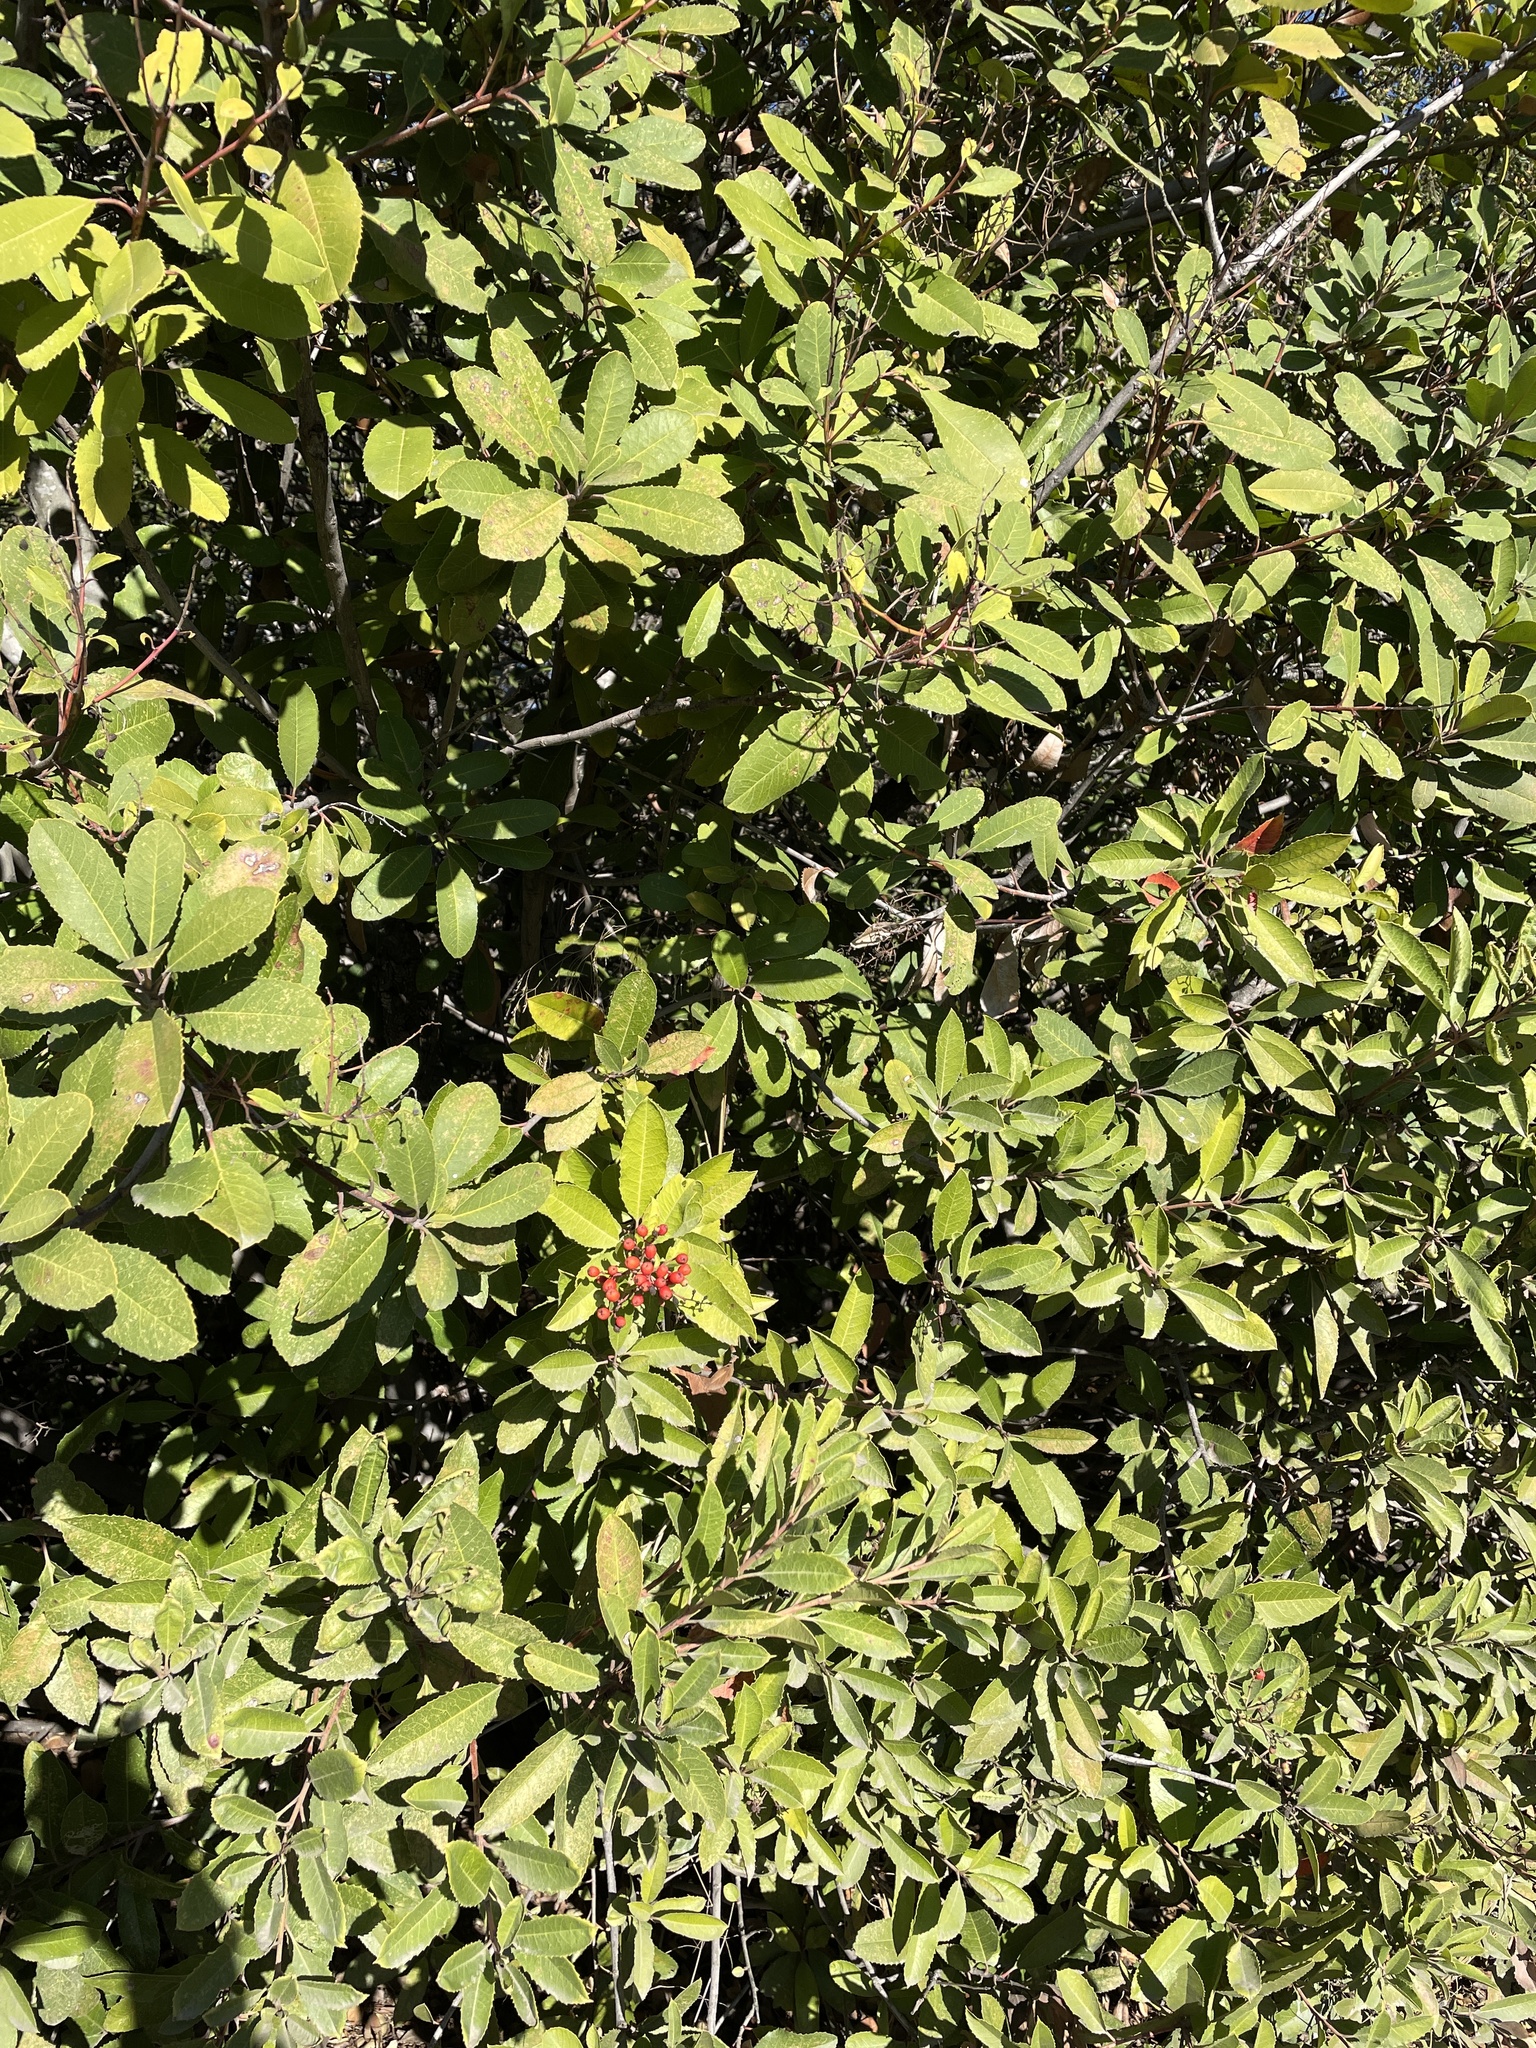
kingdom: Plantae
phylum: Tracheophyta
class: Magnoliopsida
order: Rosales
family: Rosaceae
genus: Heteromeles
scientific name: Heteromeles arbutifolia
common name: California-holly
